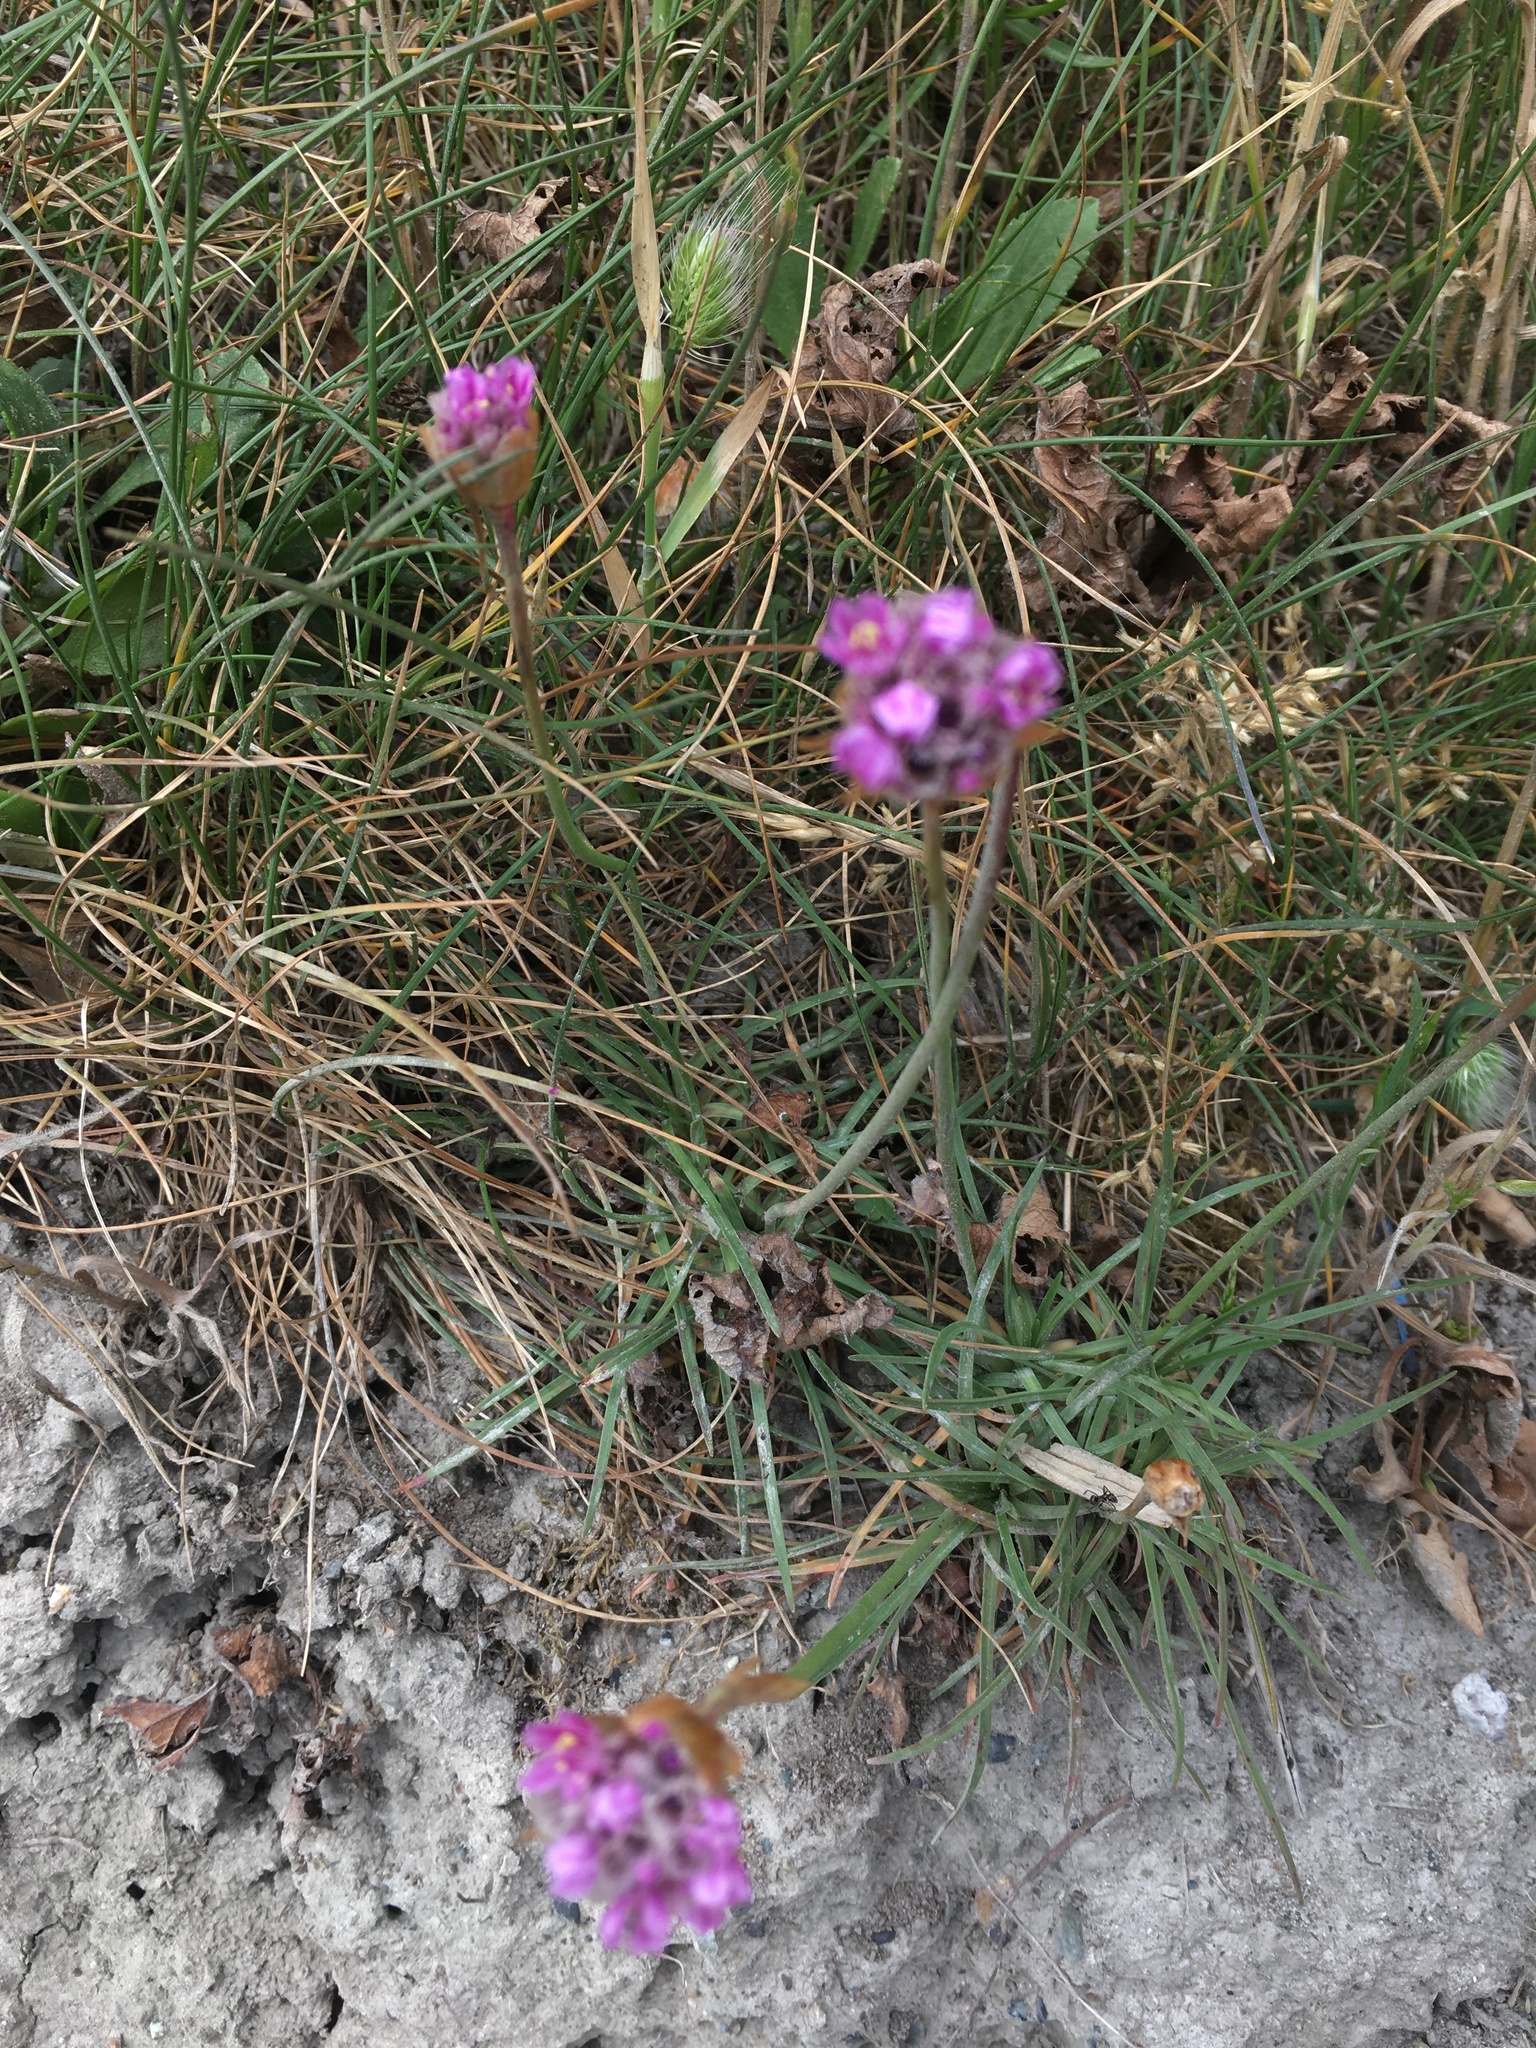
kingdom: Plantae
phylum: Tracheophyta
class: Magnoliopsida
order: Caryophyllales
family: Plumbaginaceae
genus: Armeria
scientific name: Armeria maritima
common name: Thrift
